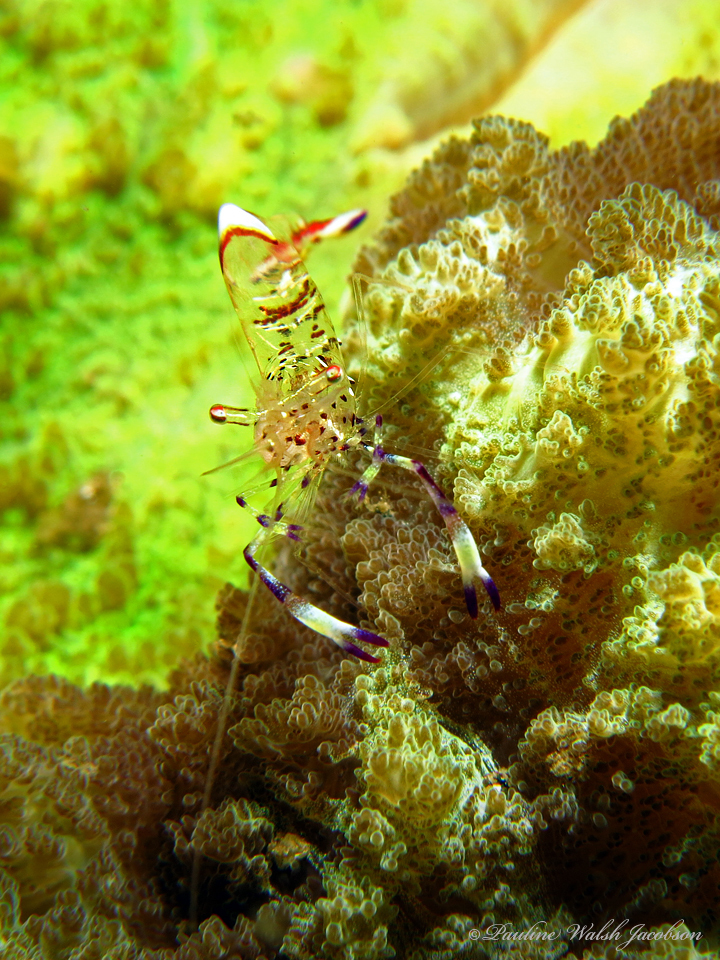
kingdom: Animalia
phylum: Arthropoda
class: Malacostraca
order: Decapoda
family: Palaemonidae
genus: Ancylomenes
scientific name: Ancylomenes holthuisi
